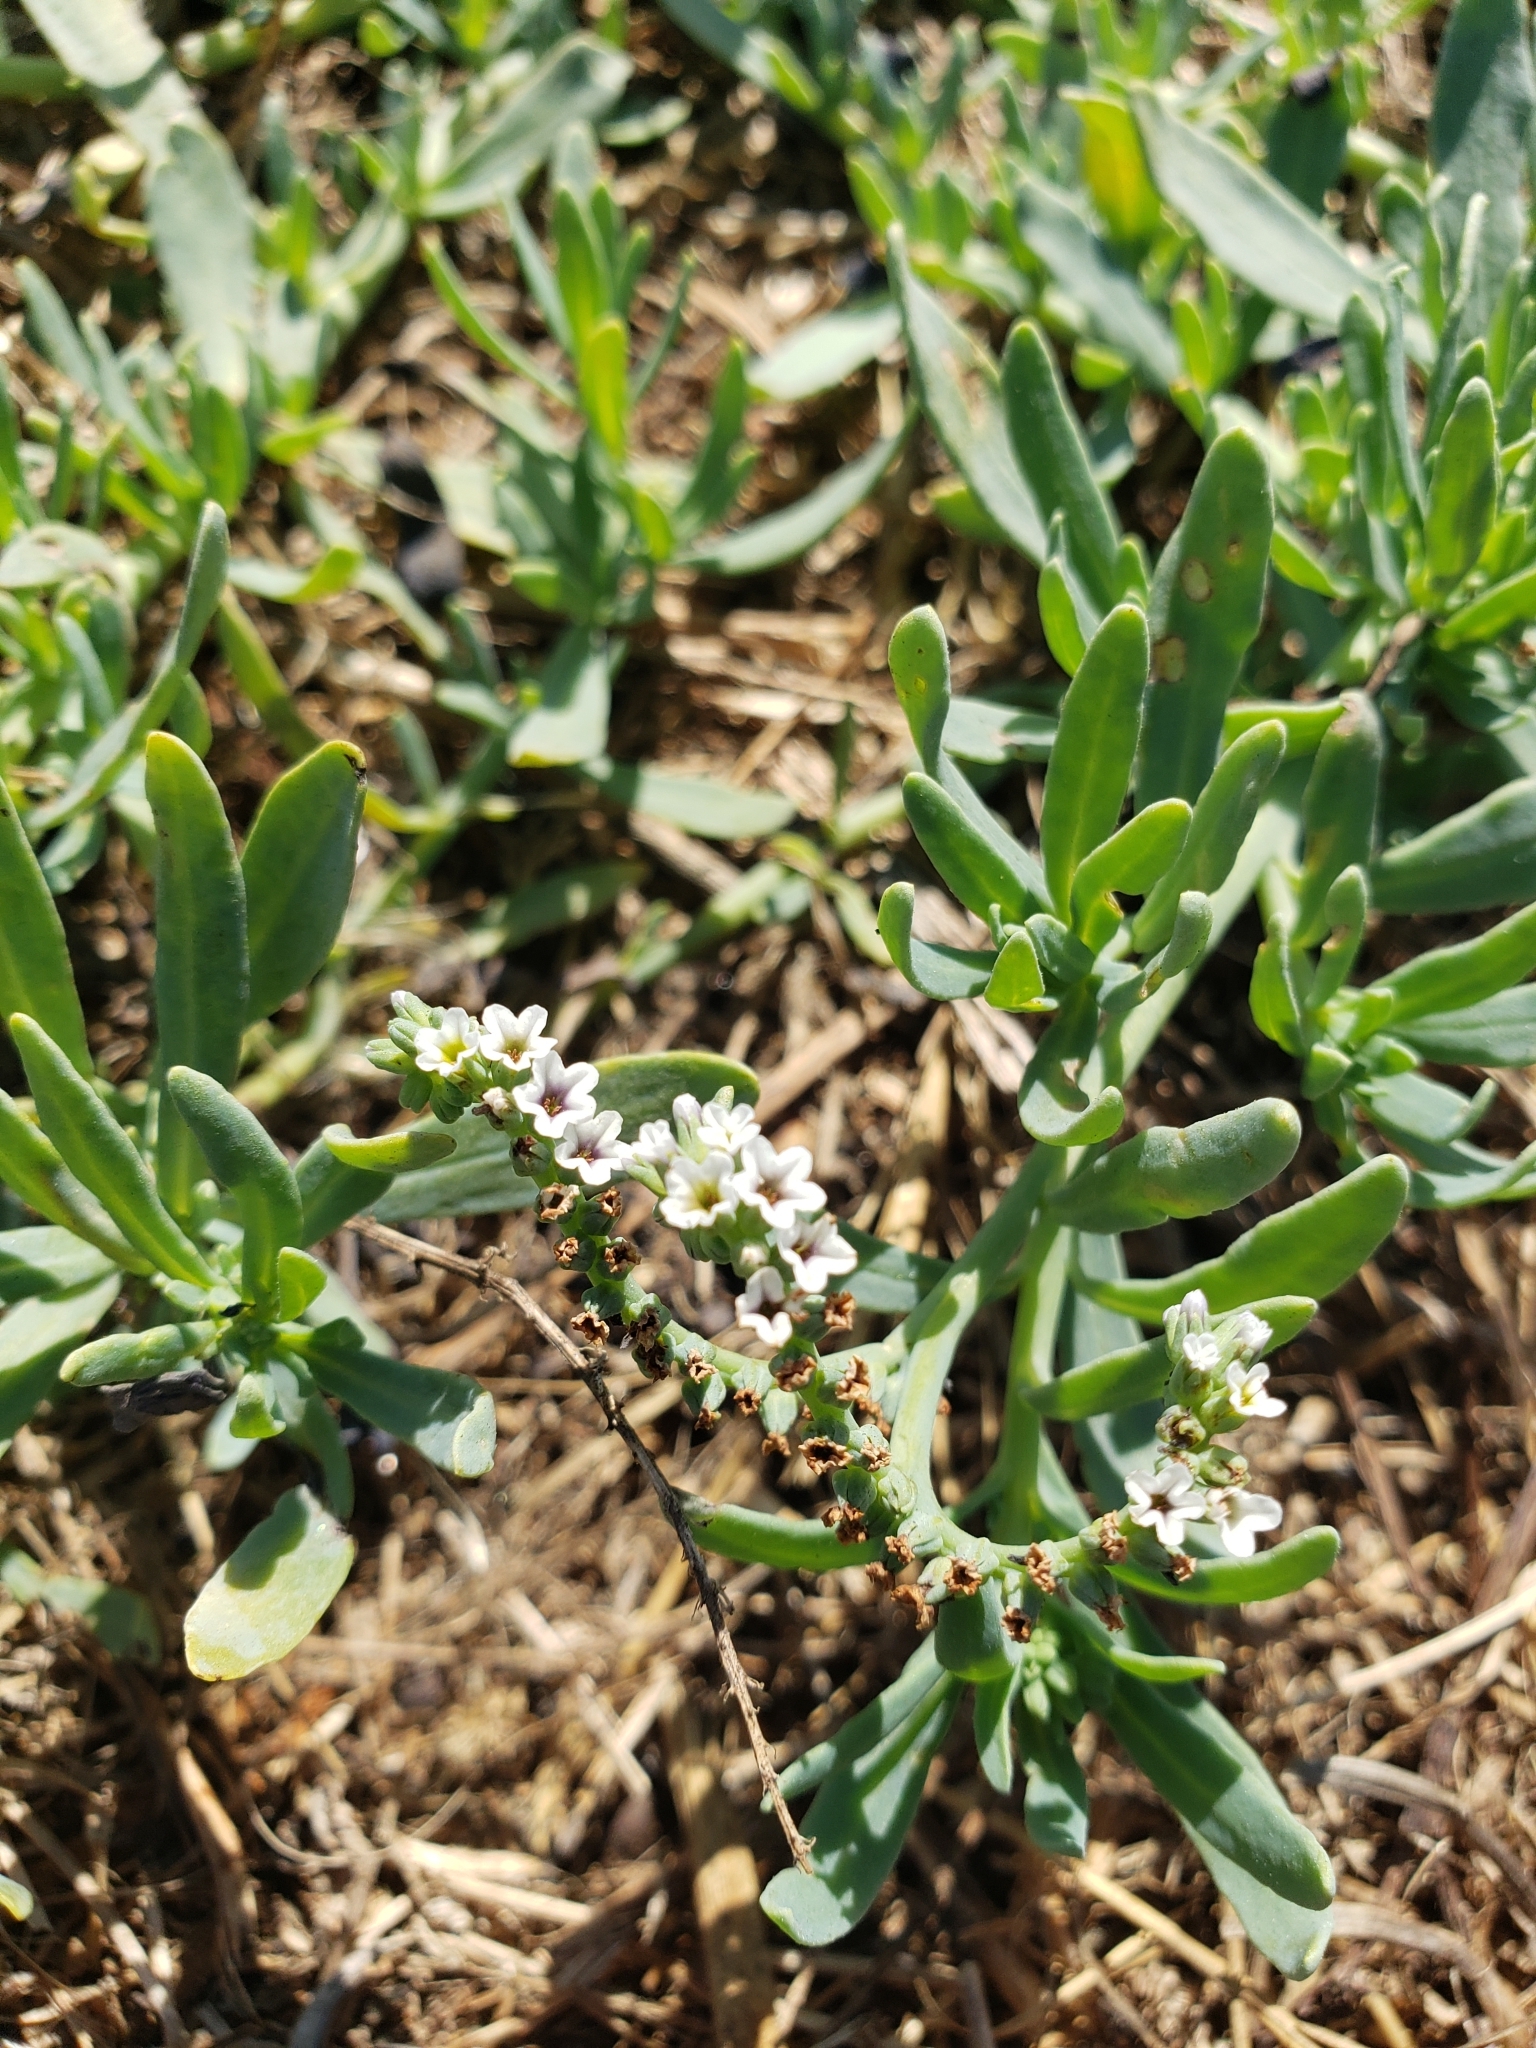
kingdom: Plantae
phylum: Tracheophyta
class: Magnoliopsida
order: Boraginales
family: Heliotropiaceae
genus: Heliotropium
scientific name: Heliotropium curassavicum
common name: Seaside heliotrope
